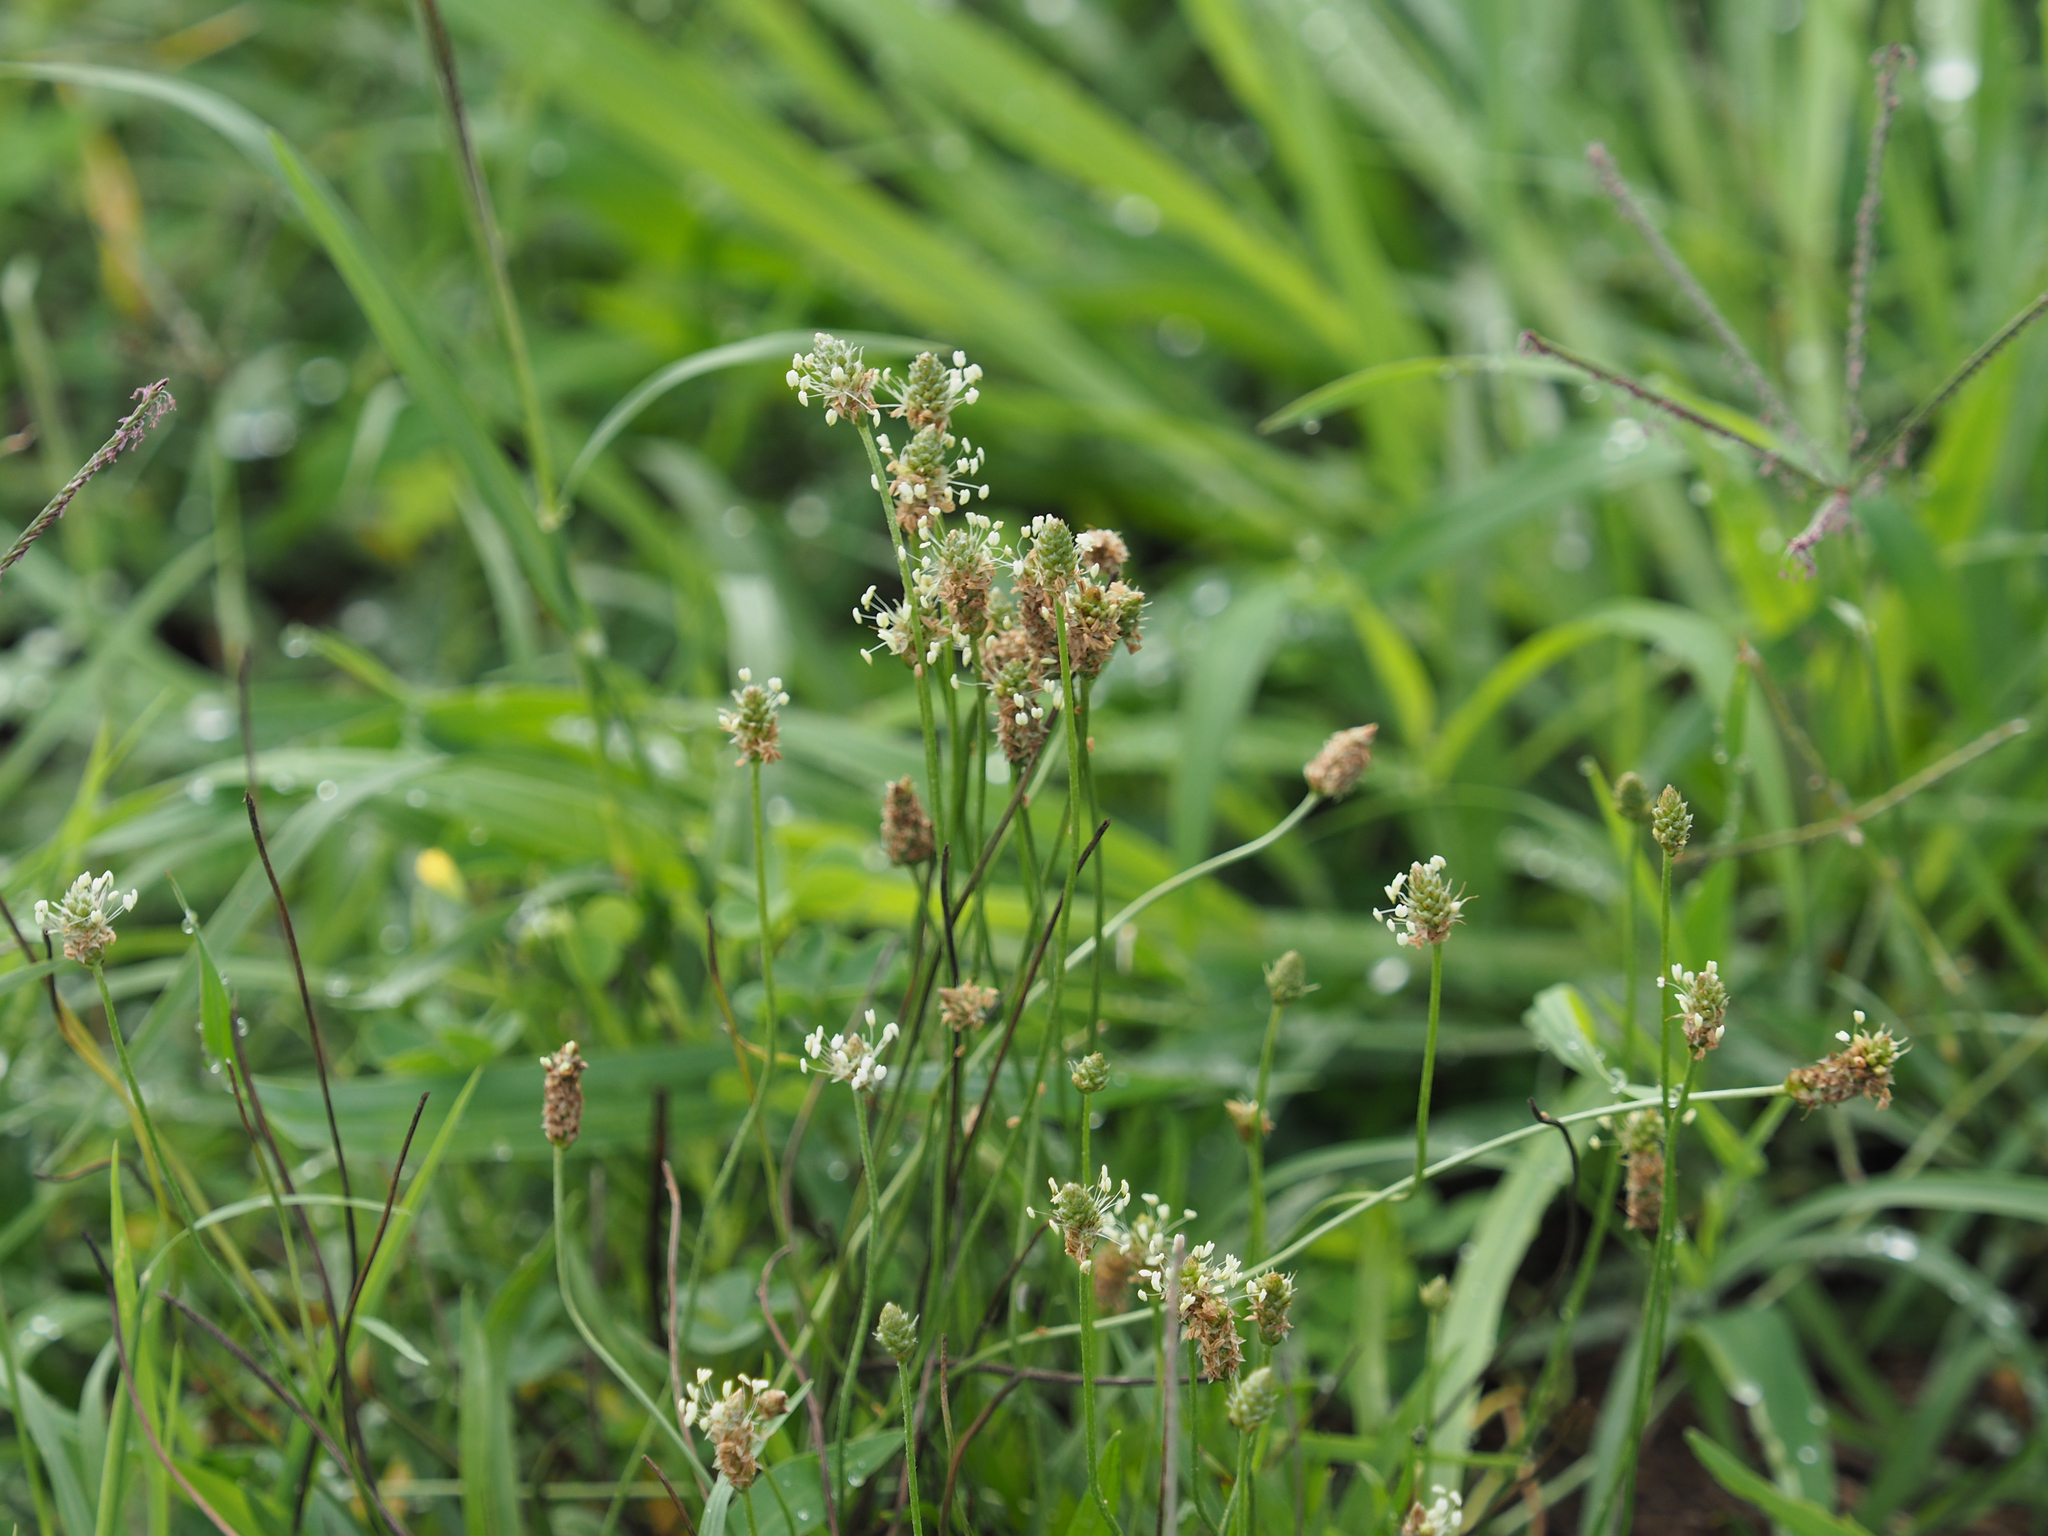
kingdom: Plantae
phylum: Tracheophyta
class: Magnoliopsida
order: Lamiales
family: Plantaginaceae
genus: Plantago
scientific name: Plantago lanceolata
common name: Ribwort plantain
